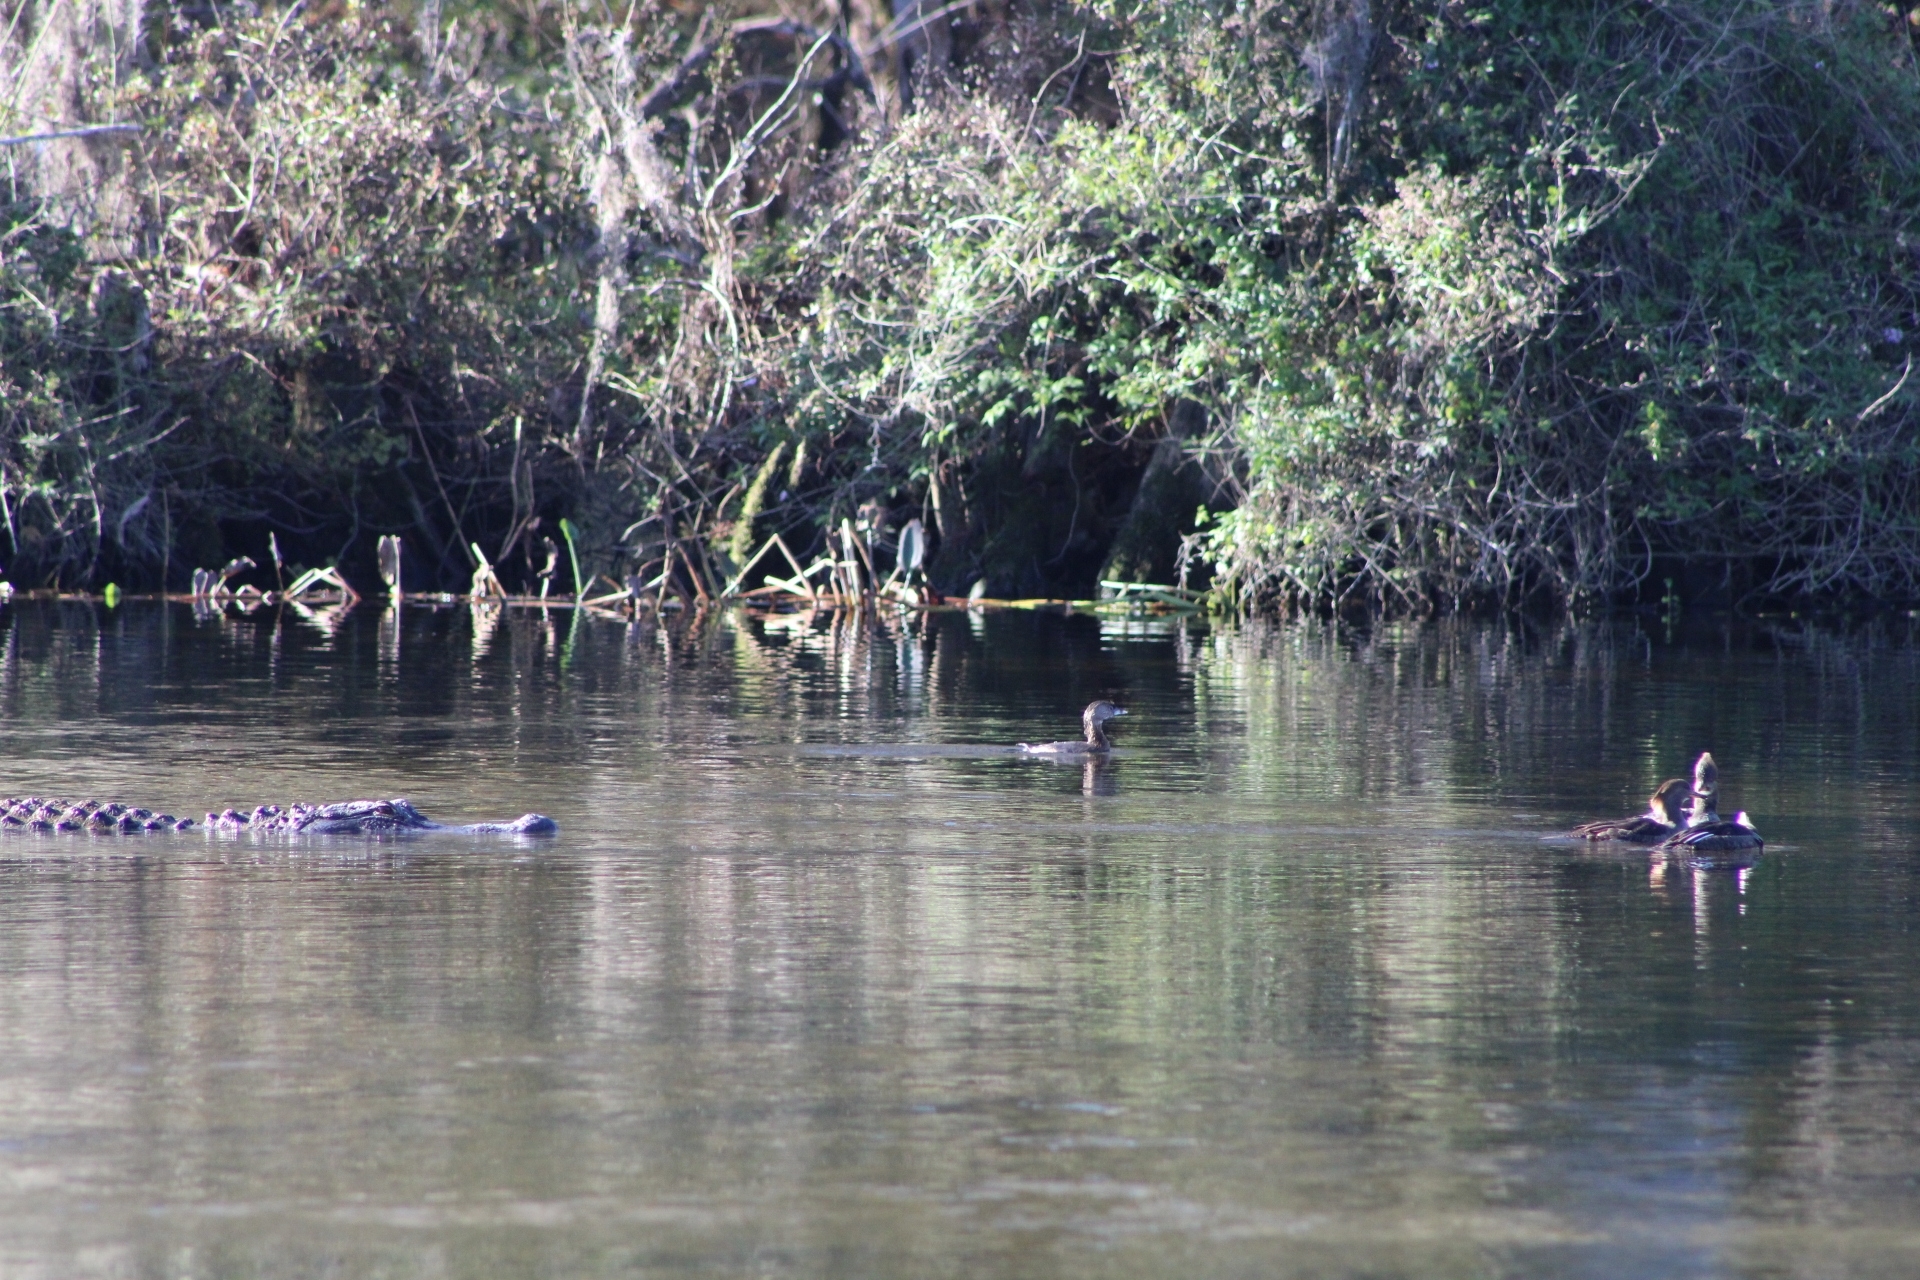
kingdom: Animalia
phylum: Chordata
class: Crocodylia
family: Alligatoridae
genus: Alligator
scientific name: Alligator mississippiensis
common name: American alligator
